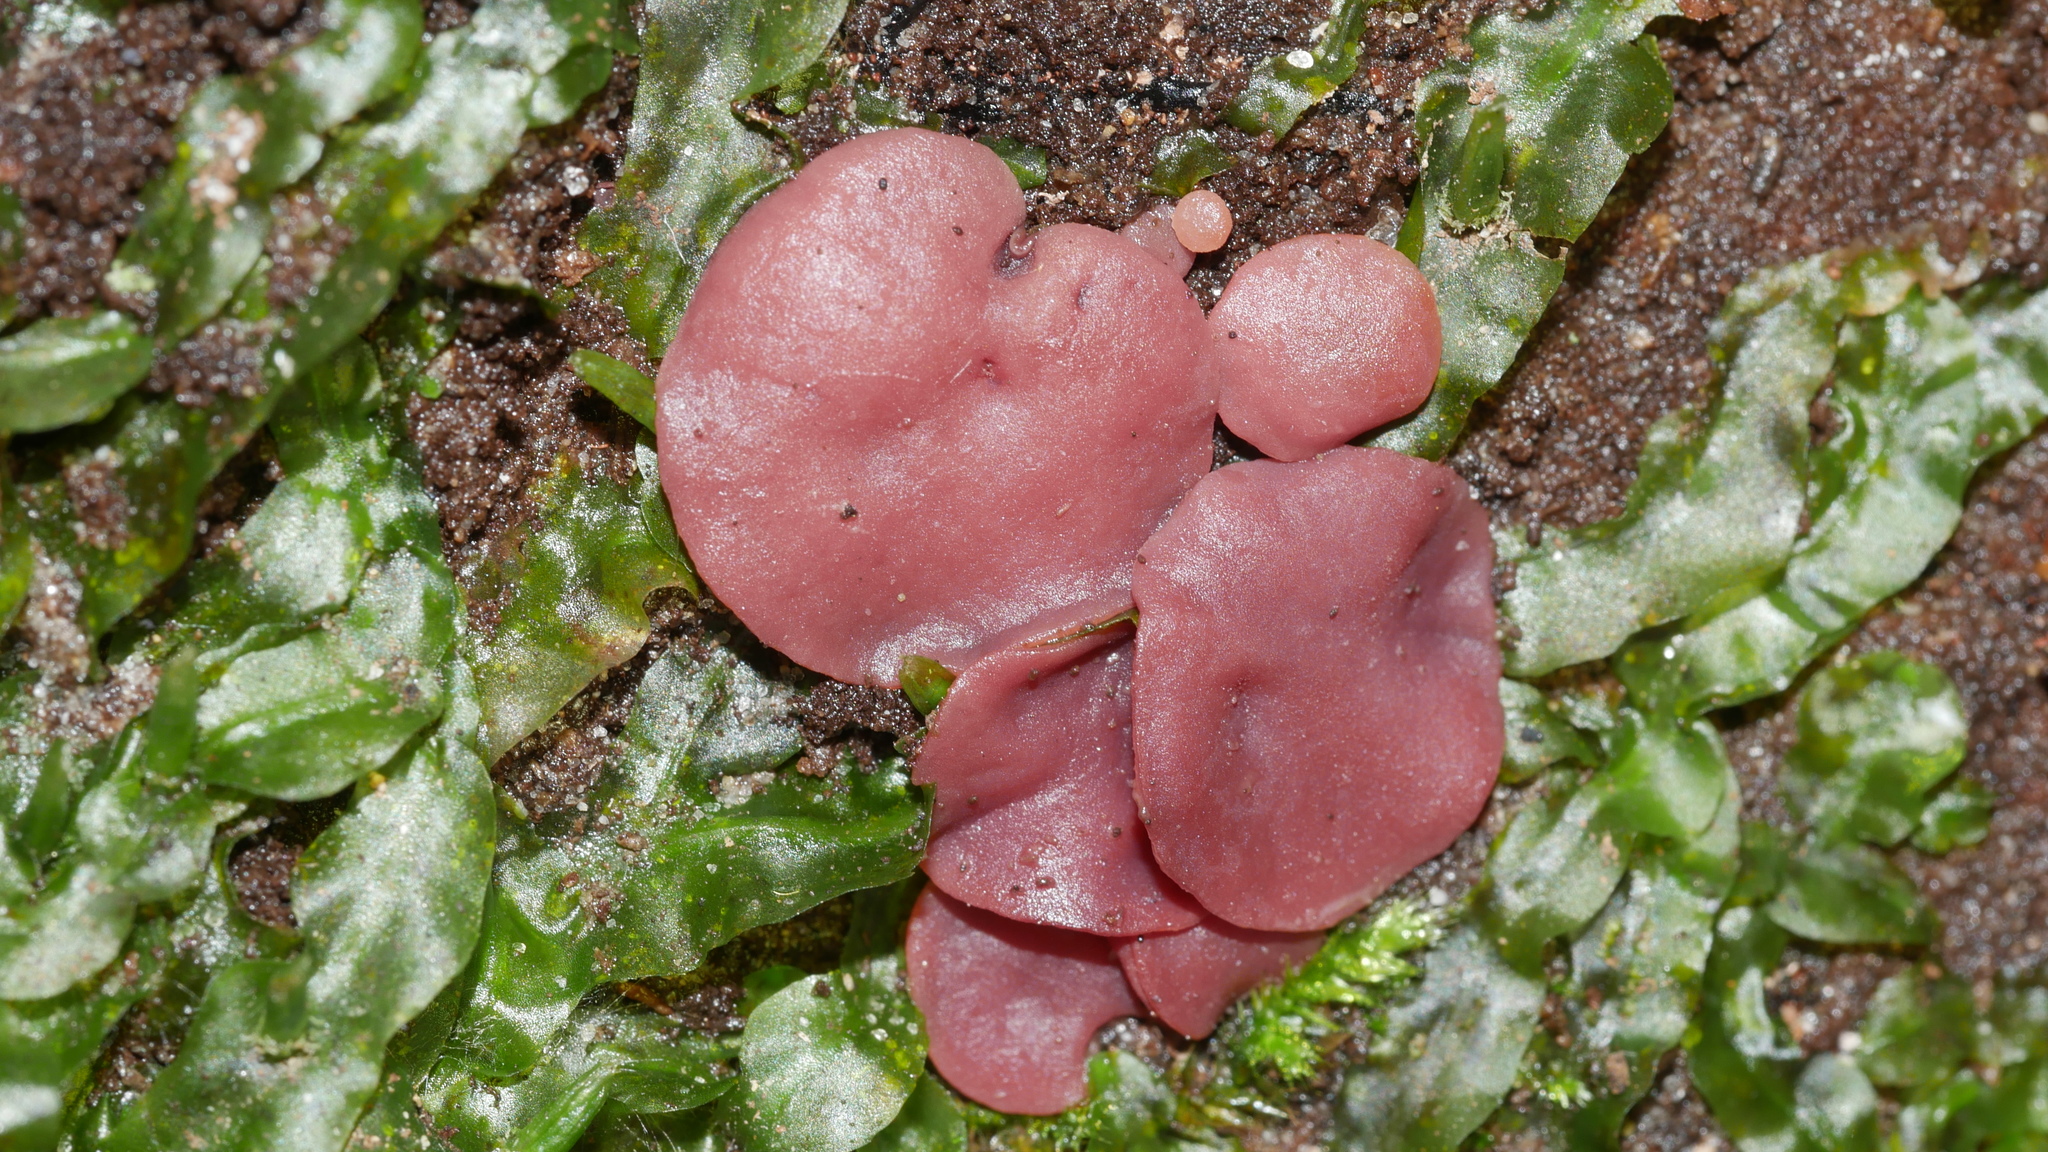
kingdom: Fungi
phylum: Ascomycota
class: Leotiomycetes
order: Helotiales
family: Gelatinodiscaceae
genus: Ascocoryne
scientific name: Ascocoryne sarcoides
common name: Purple jellydisc
